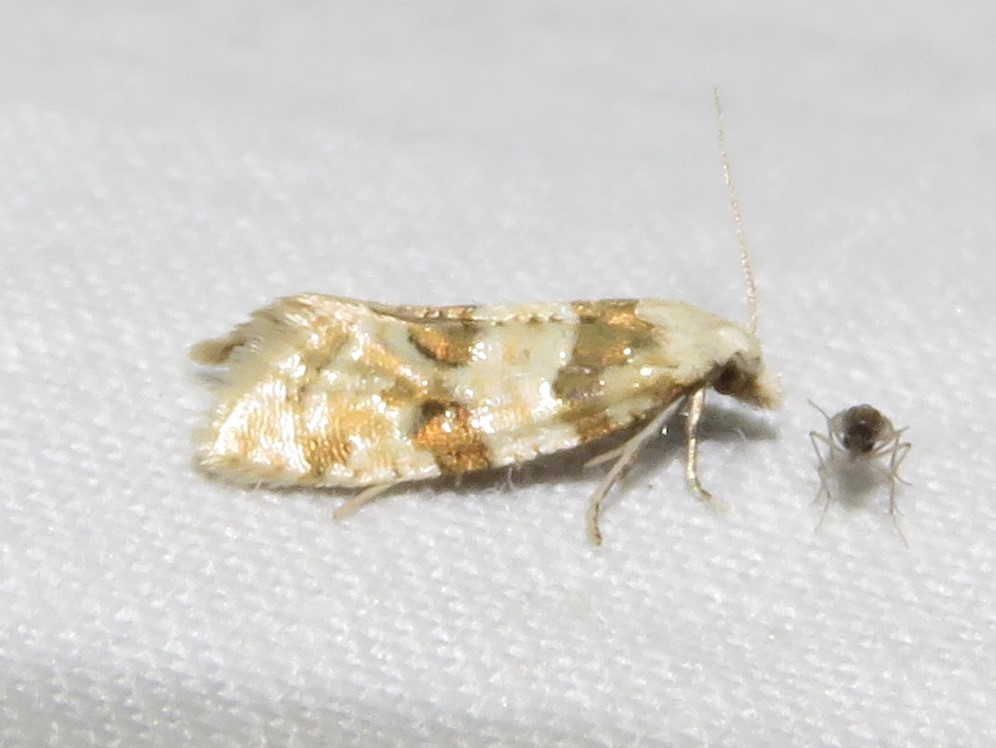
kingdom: Animalia
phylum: Arthropoda
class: Insecta
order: Lepidoptera
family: Tortricidae
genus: Aethes
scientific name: Aethes argentilimitana
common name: Silver-bordered aethes
